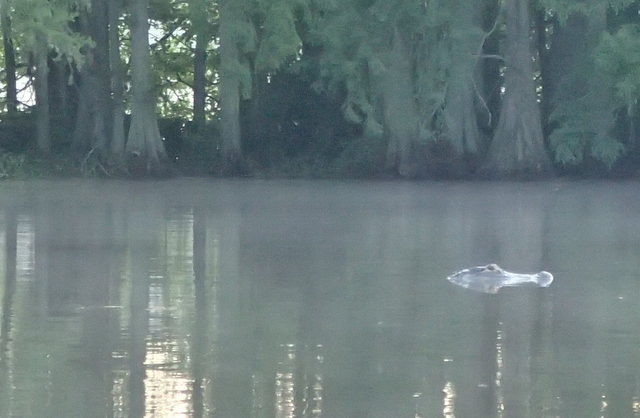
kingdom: Animalia
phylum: Chordata
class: Crocodylia
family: Alligatoridae
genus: Alligator
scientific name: Alligator mississippiensis
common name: American alligator
